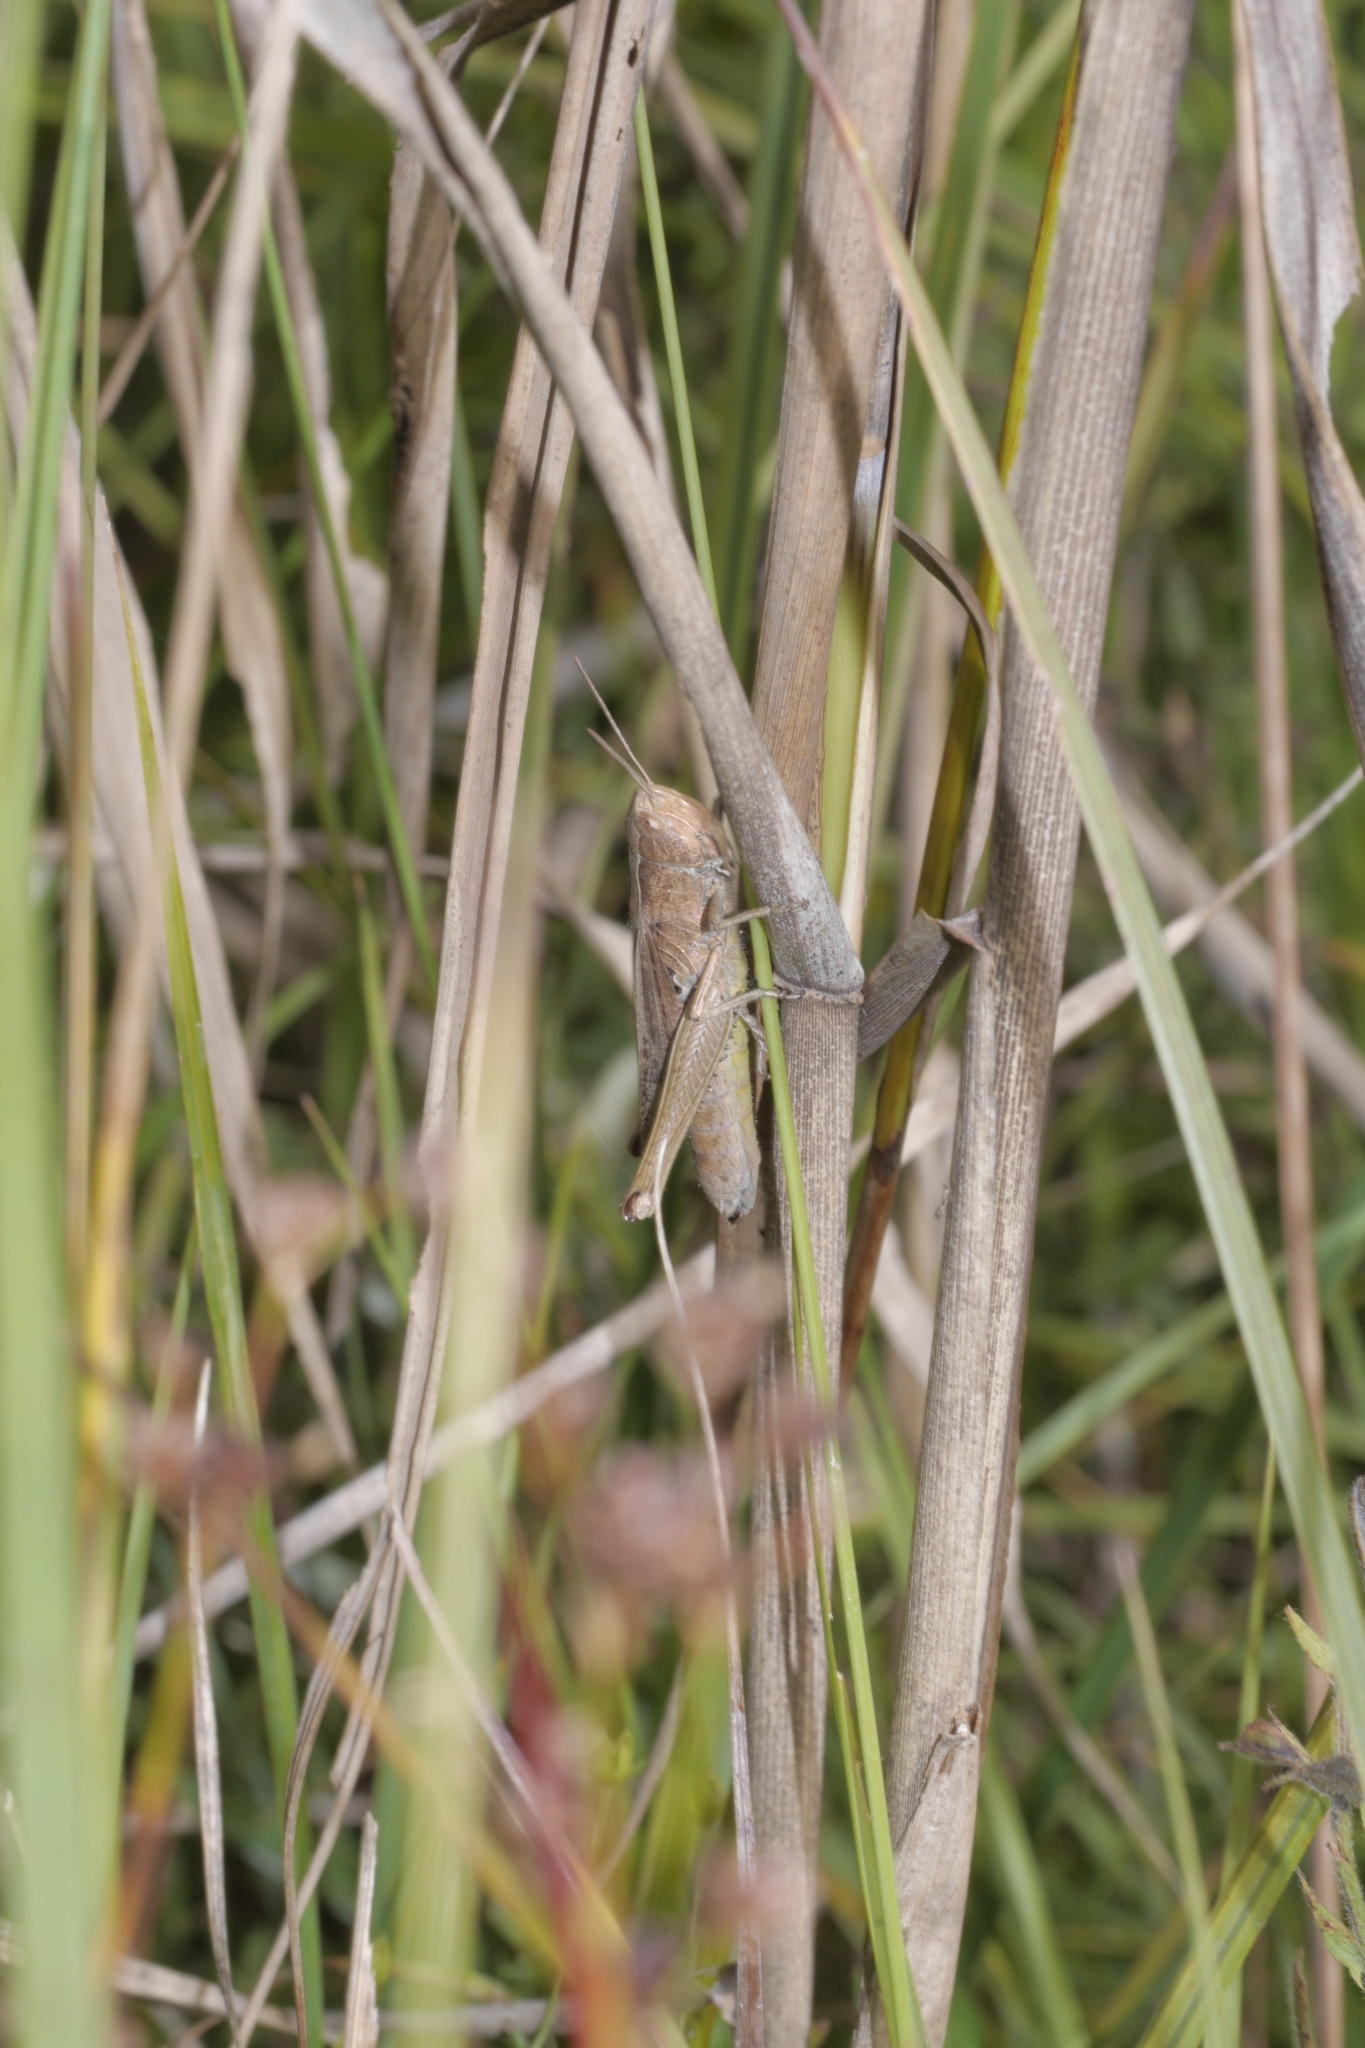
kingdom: Animalia
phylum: Arthropoda
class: Insecta
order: Orthoptera
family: Acrididae
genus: Chorthippus
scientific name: Chorthippus dorsatus
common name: Steppe grasshopper
